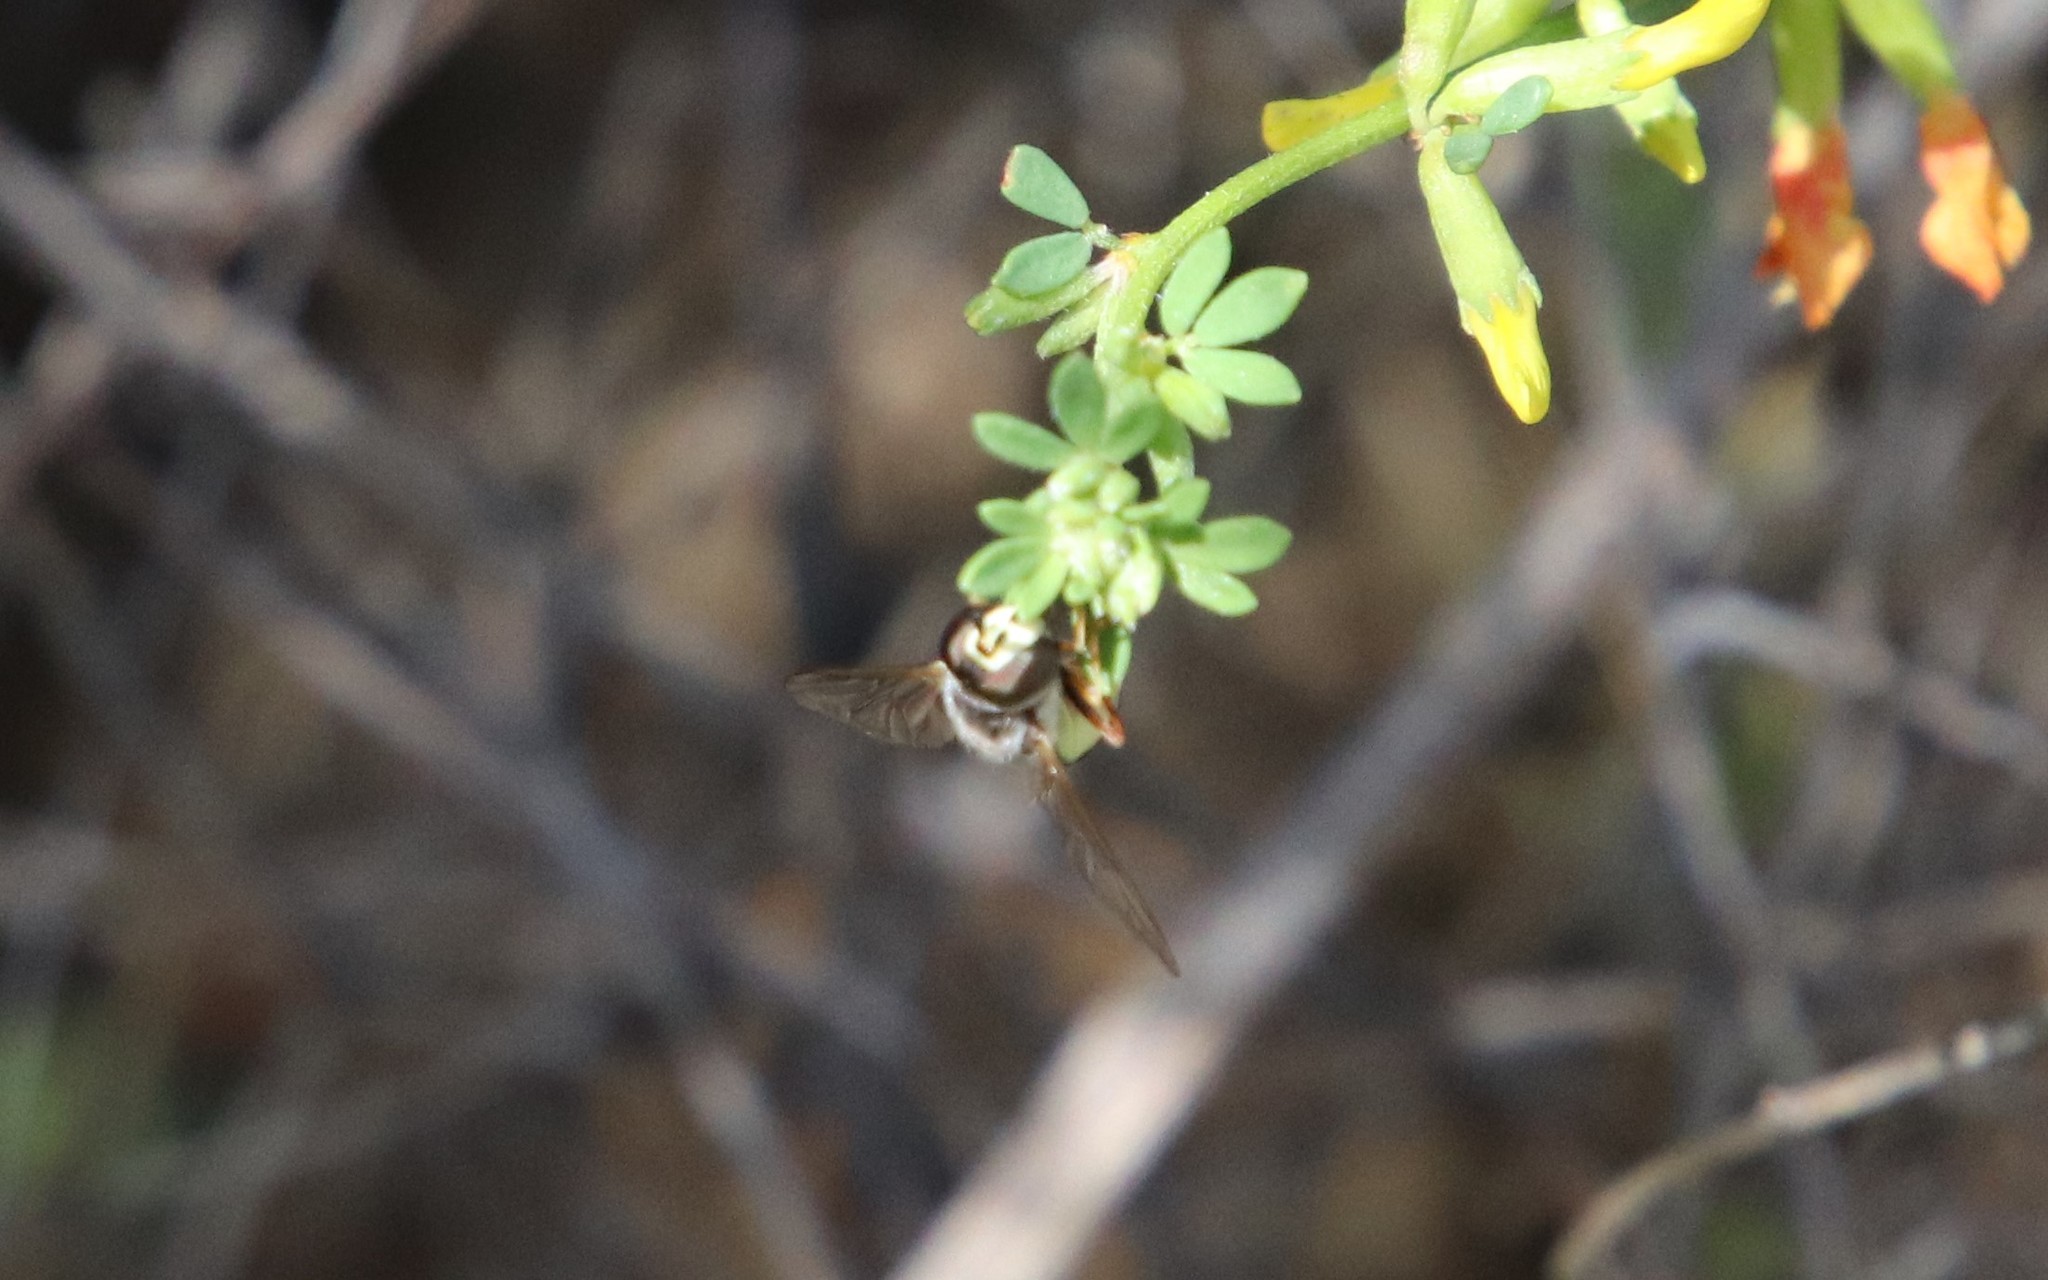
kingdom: Animalia
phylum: Arthropoda
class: Insecta
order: Diptera
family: Syrphidae
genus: Eupeodes
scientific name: Eupeodes volucris
